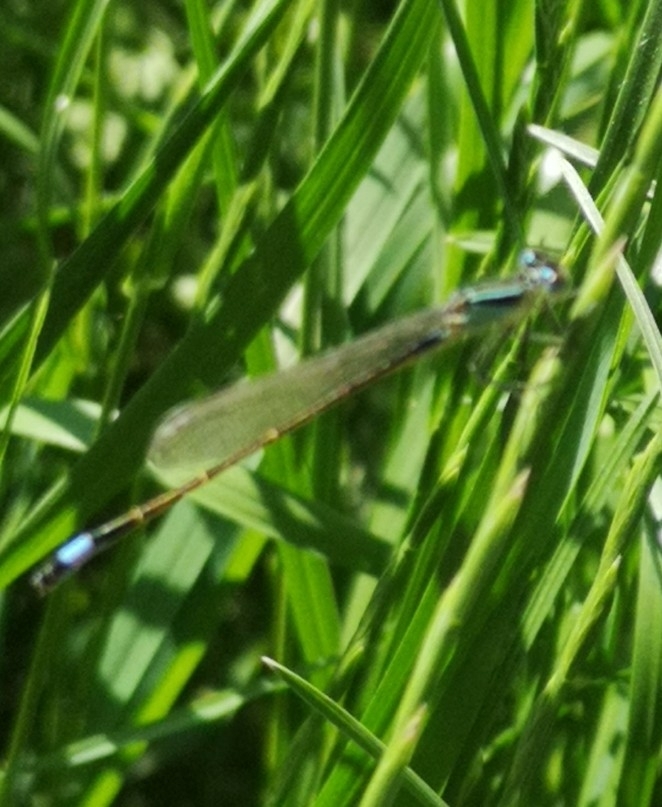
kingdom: Animalia
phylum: Arthropoda
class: Insecta
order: Odonata
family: Coenagrionidae
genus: Ischnura
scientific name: Ischnura elegans
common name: Blue-tailed damselfly
